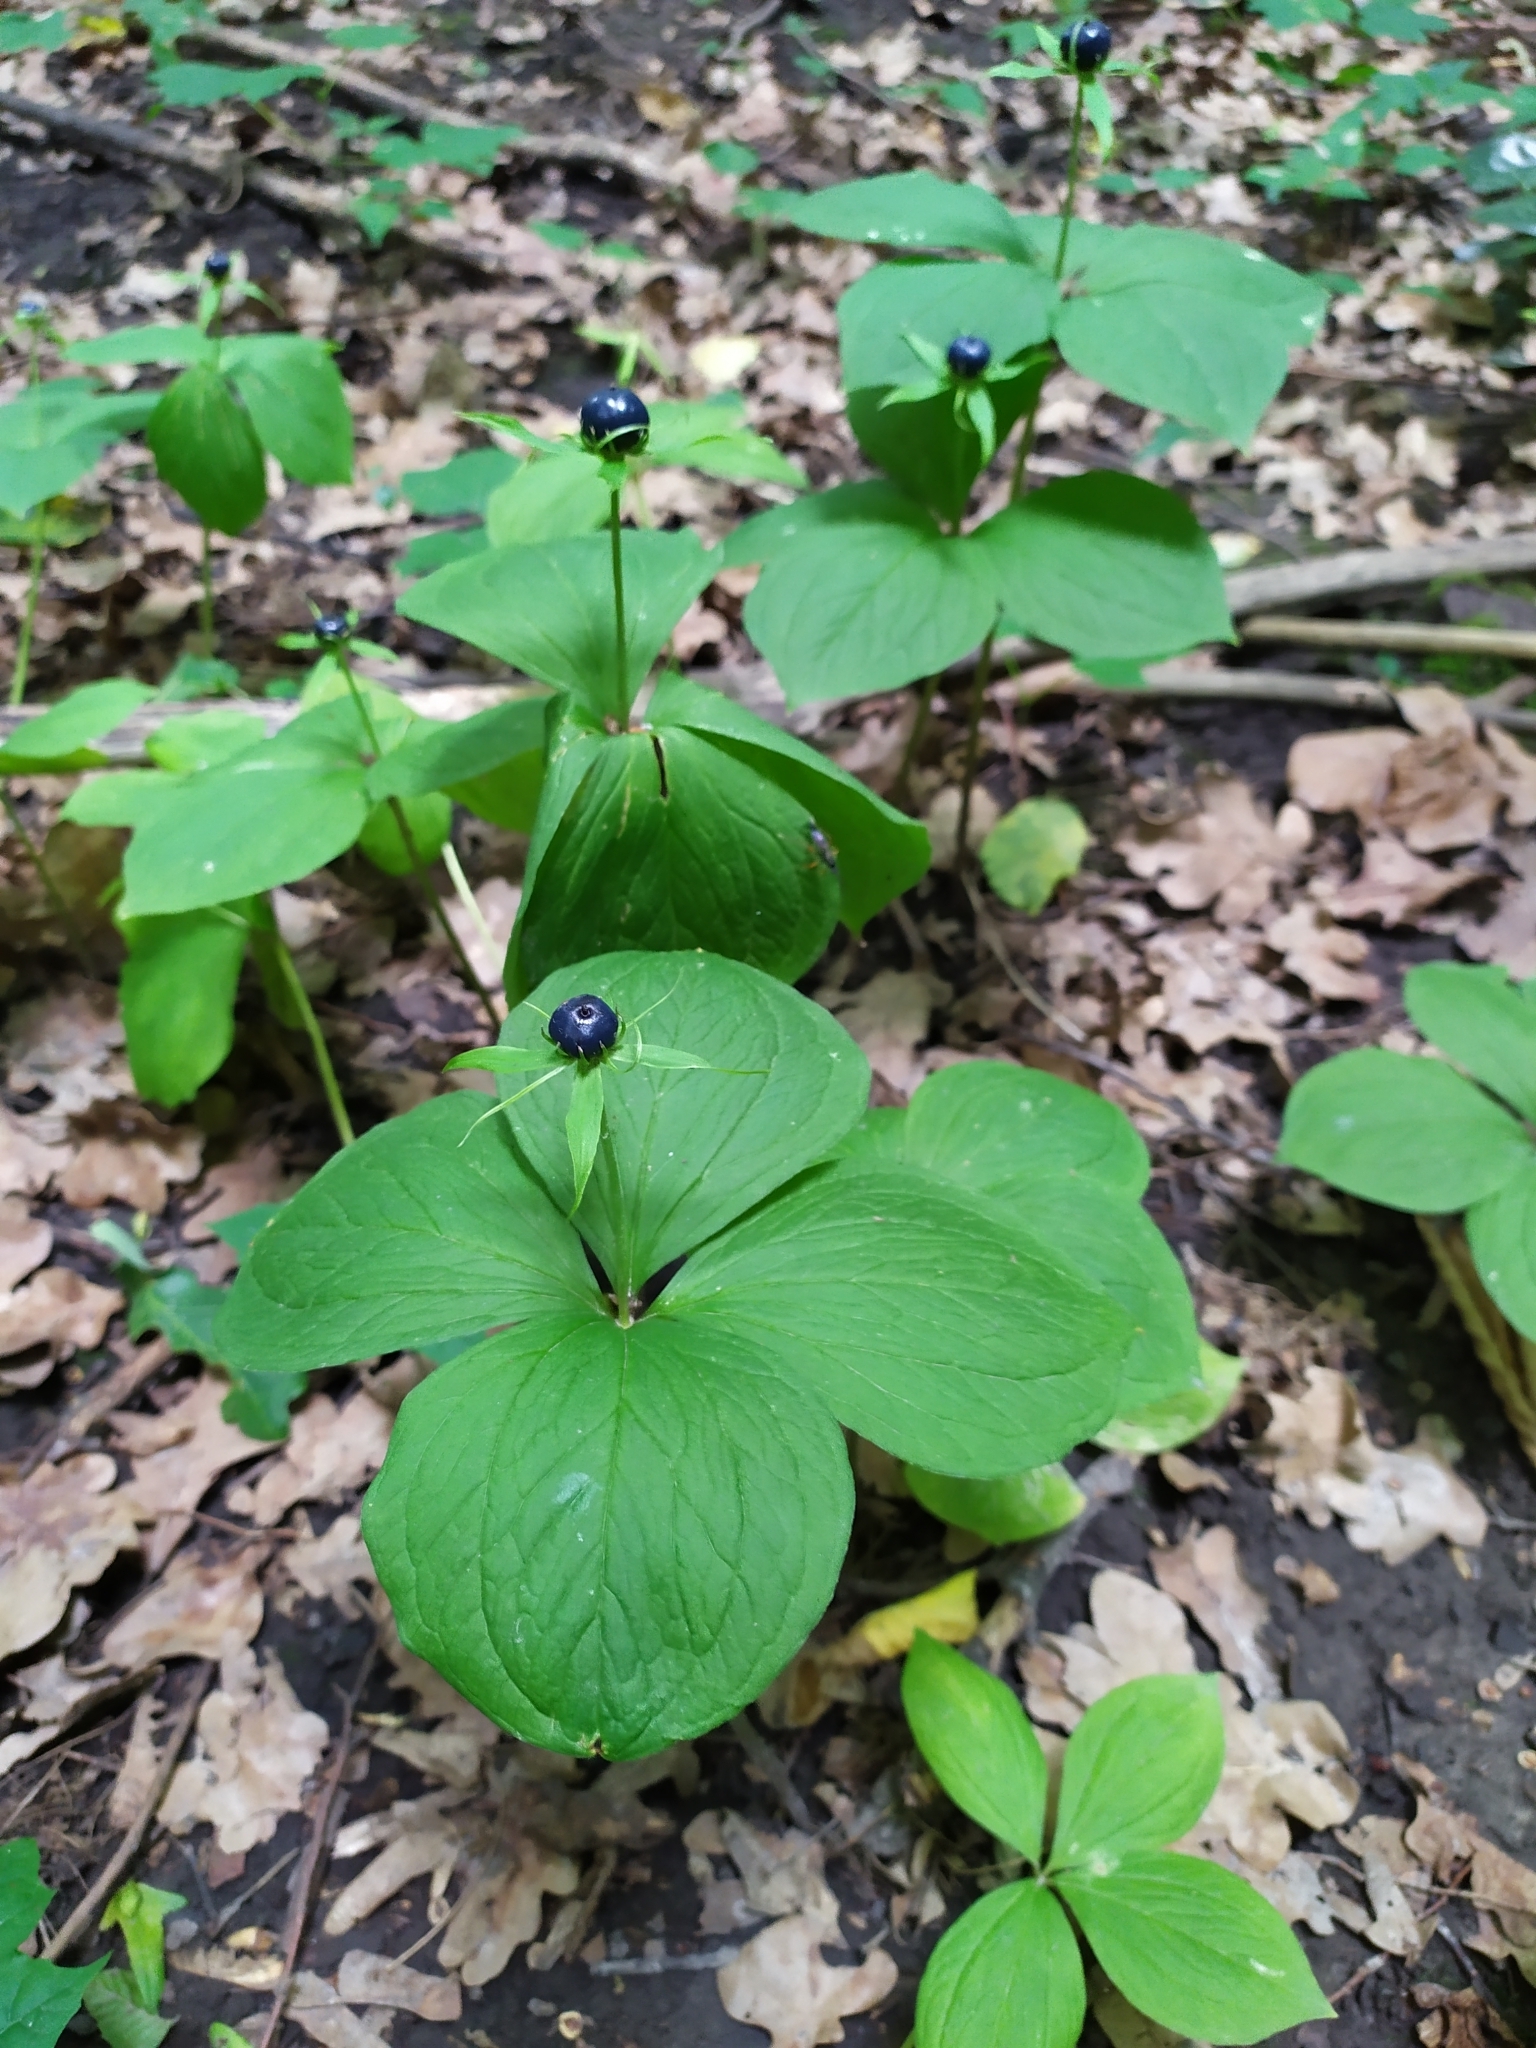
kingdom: Plantae
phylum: Tracheophyta
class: Liliopsida
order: Liliales
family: Melanthiaceae
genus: Paris
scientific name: Paris quadrifolia
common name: Herb-paris
